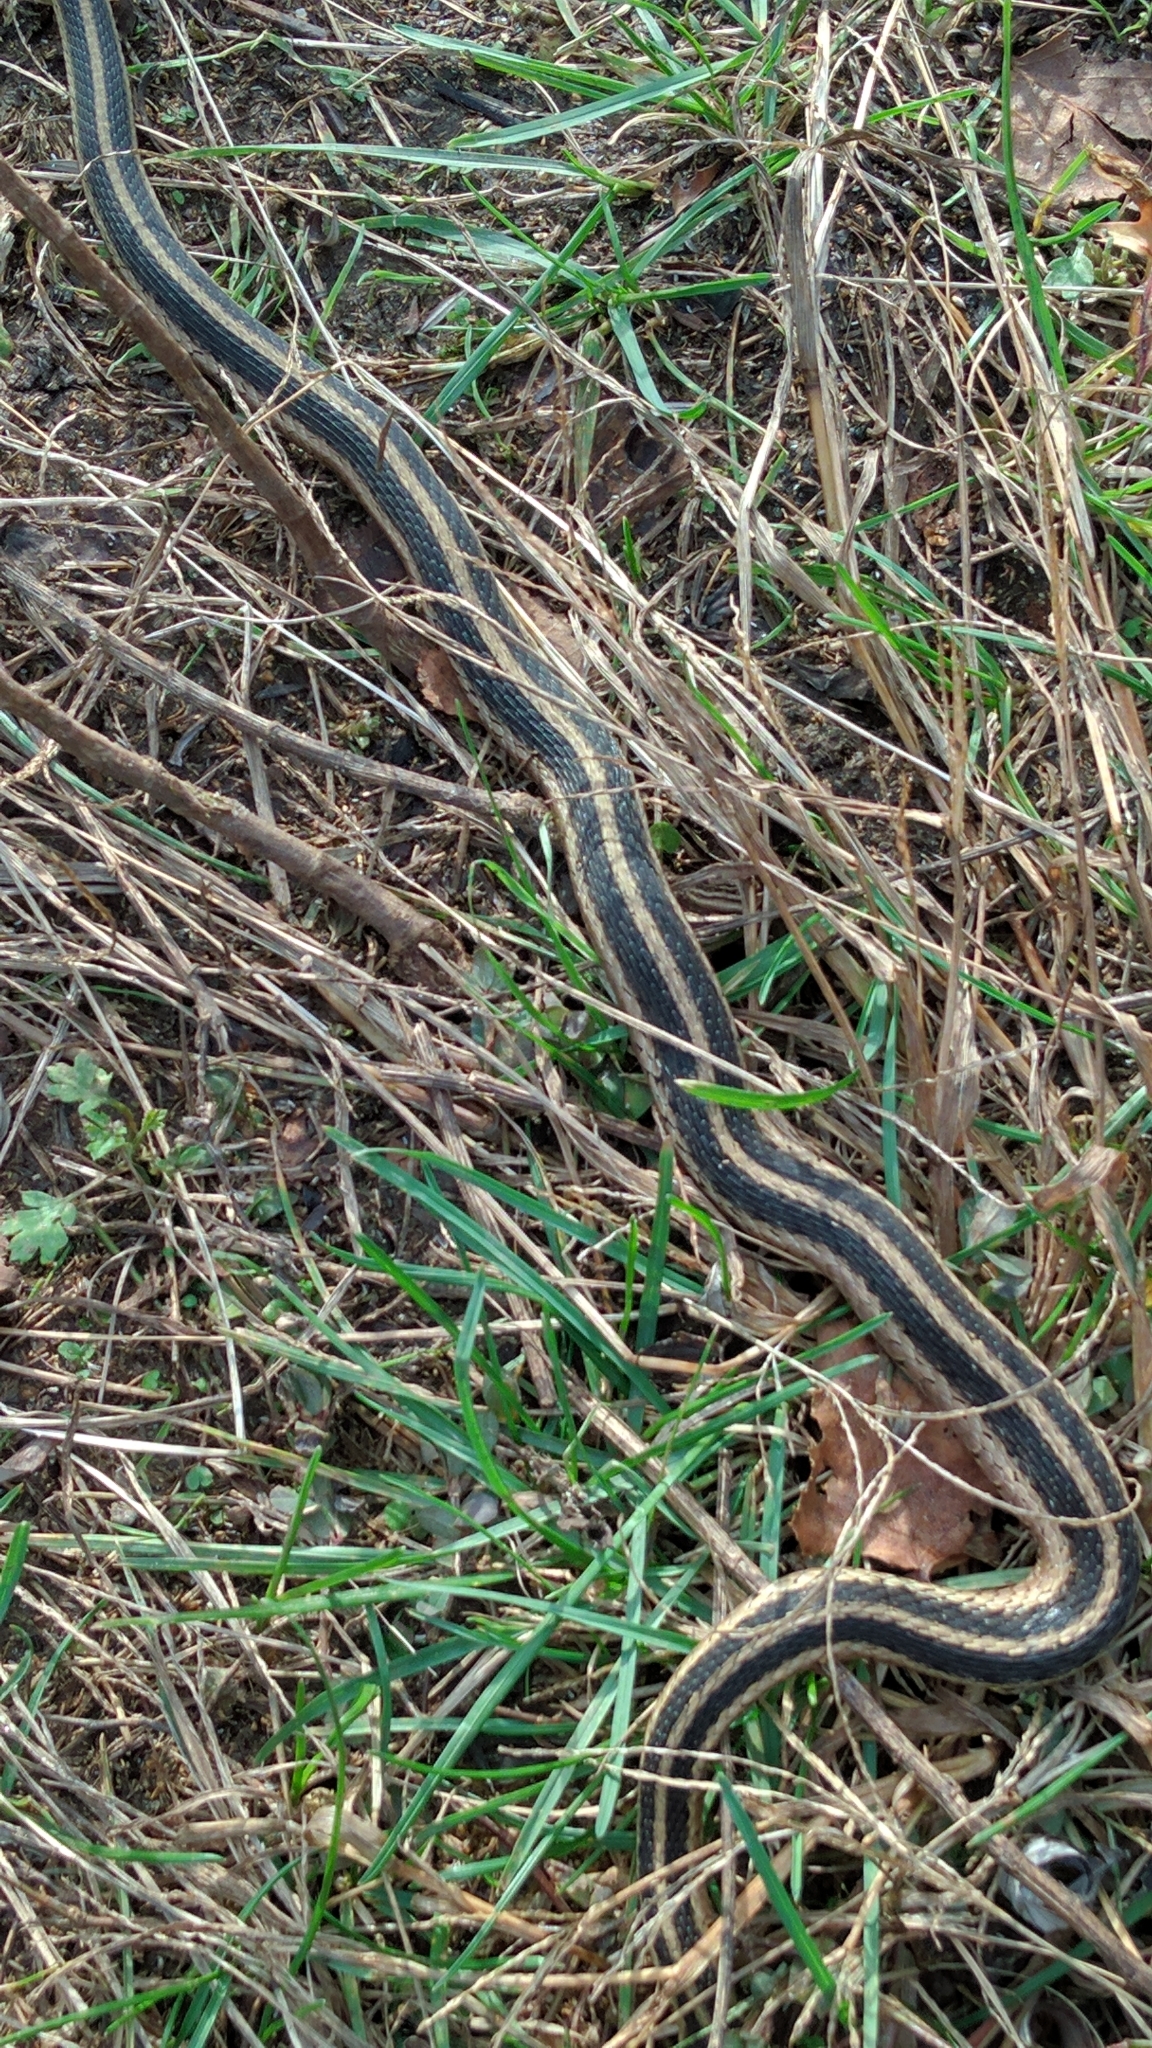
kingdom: Animalia
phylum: Chordata
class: Squamata
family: Colubridae
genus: Thamnophis
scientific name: Thamnophis sirtalis
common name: Common garter snake
